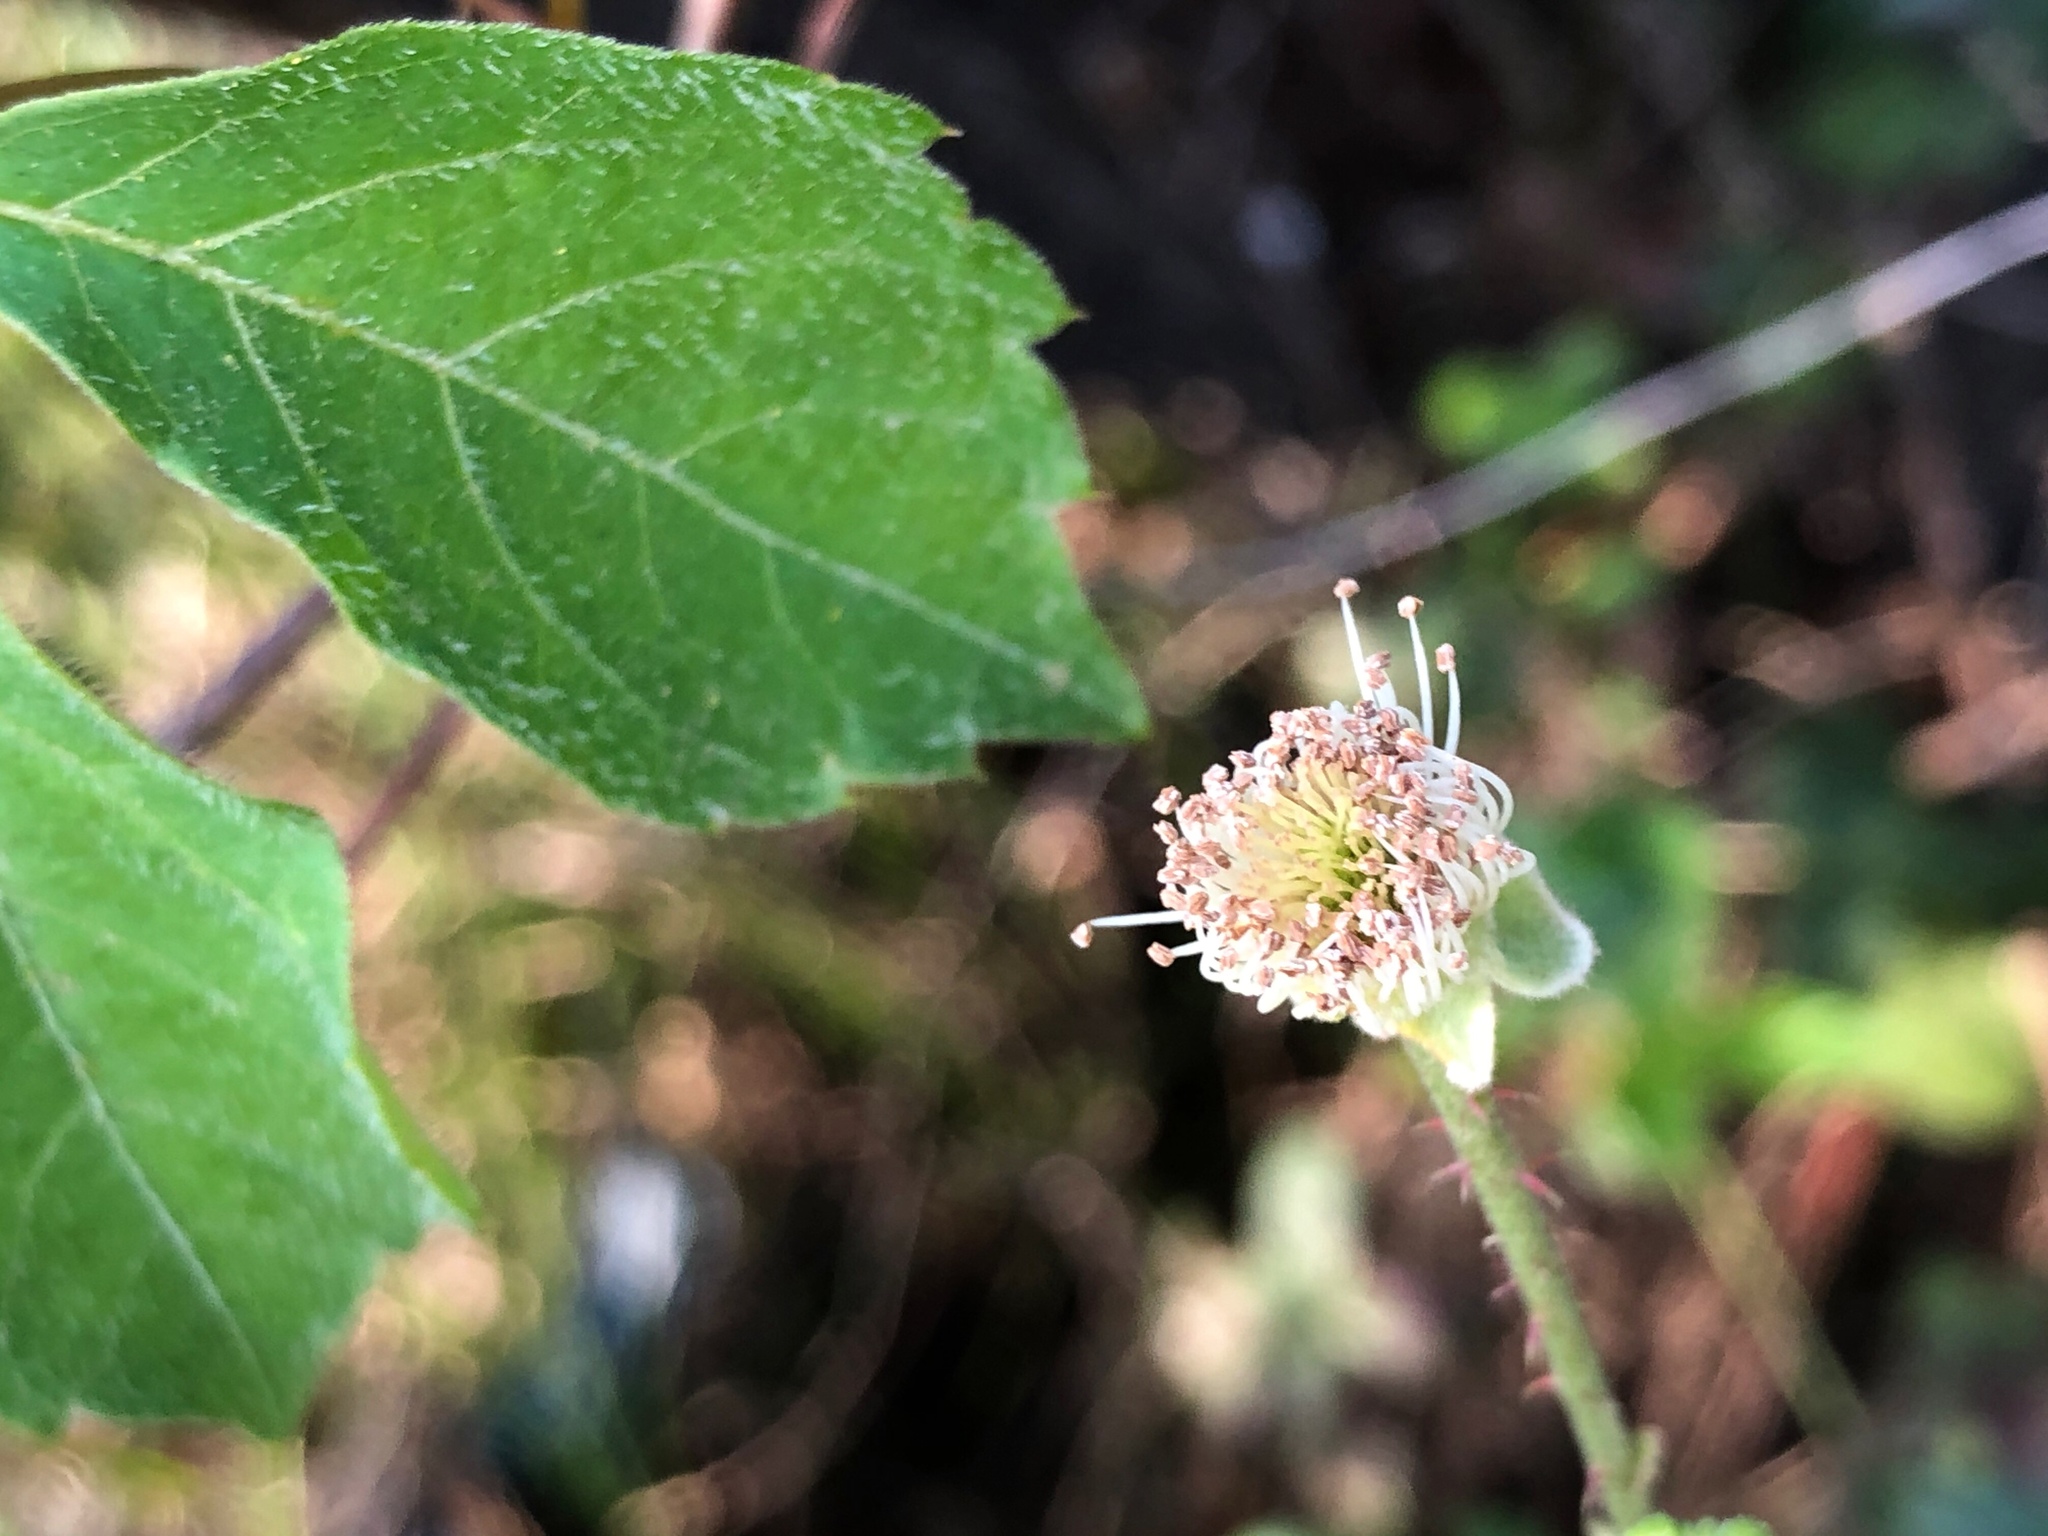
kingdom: Plantae
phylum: Tracheophyta
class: Magnoliopsida
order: Rosales
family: Rosaceae
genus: Rubus
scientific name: Rubus trivialis
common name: Southern dewberry
